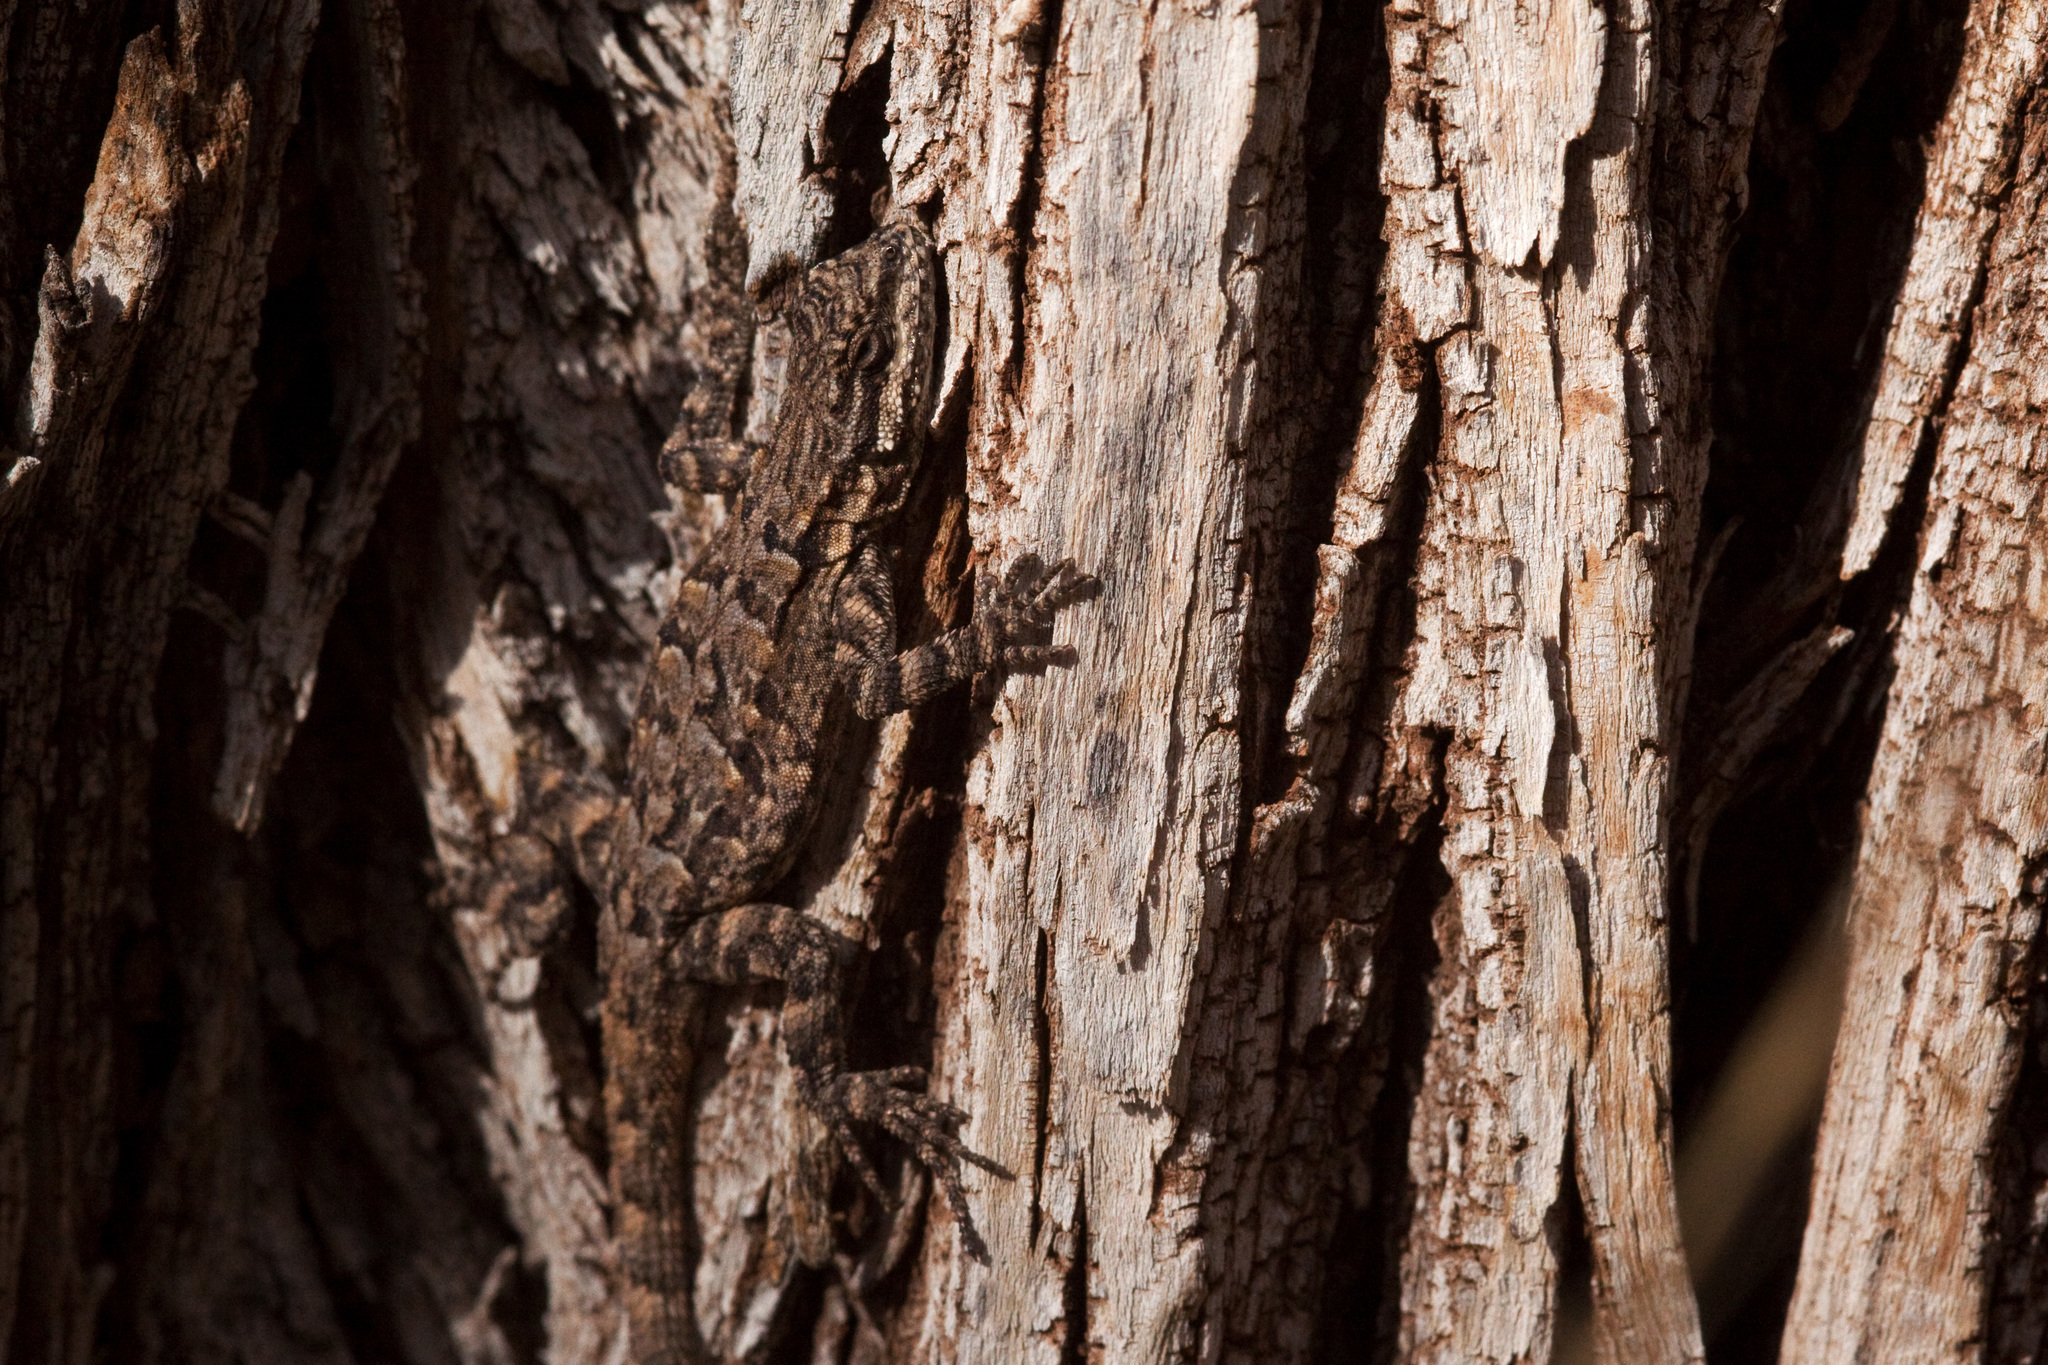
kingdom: Animalia
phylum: Chordata
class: Squamata
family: Phrynosomatidae
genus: Urosaurus
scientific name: Urosaurus ornatus
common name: Ornate tree lizard
